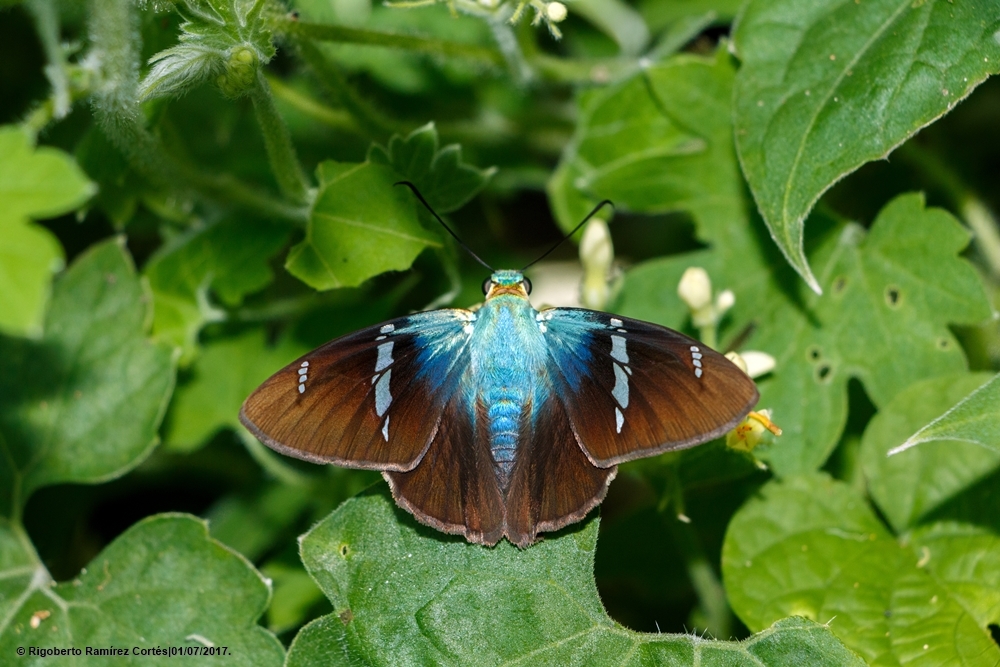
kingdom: Animalia
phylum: Arthropoda
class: Insecta
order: Lepidoptera
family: Hesperiidae
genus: Astraptes
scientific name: Astraptes fulgerator
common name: Two-barred flasher
